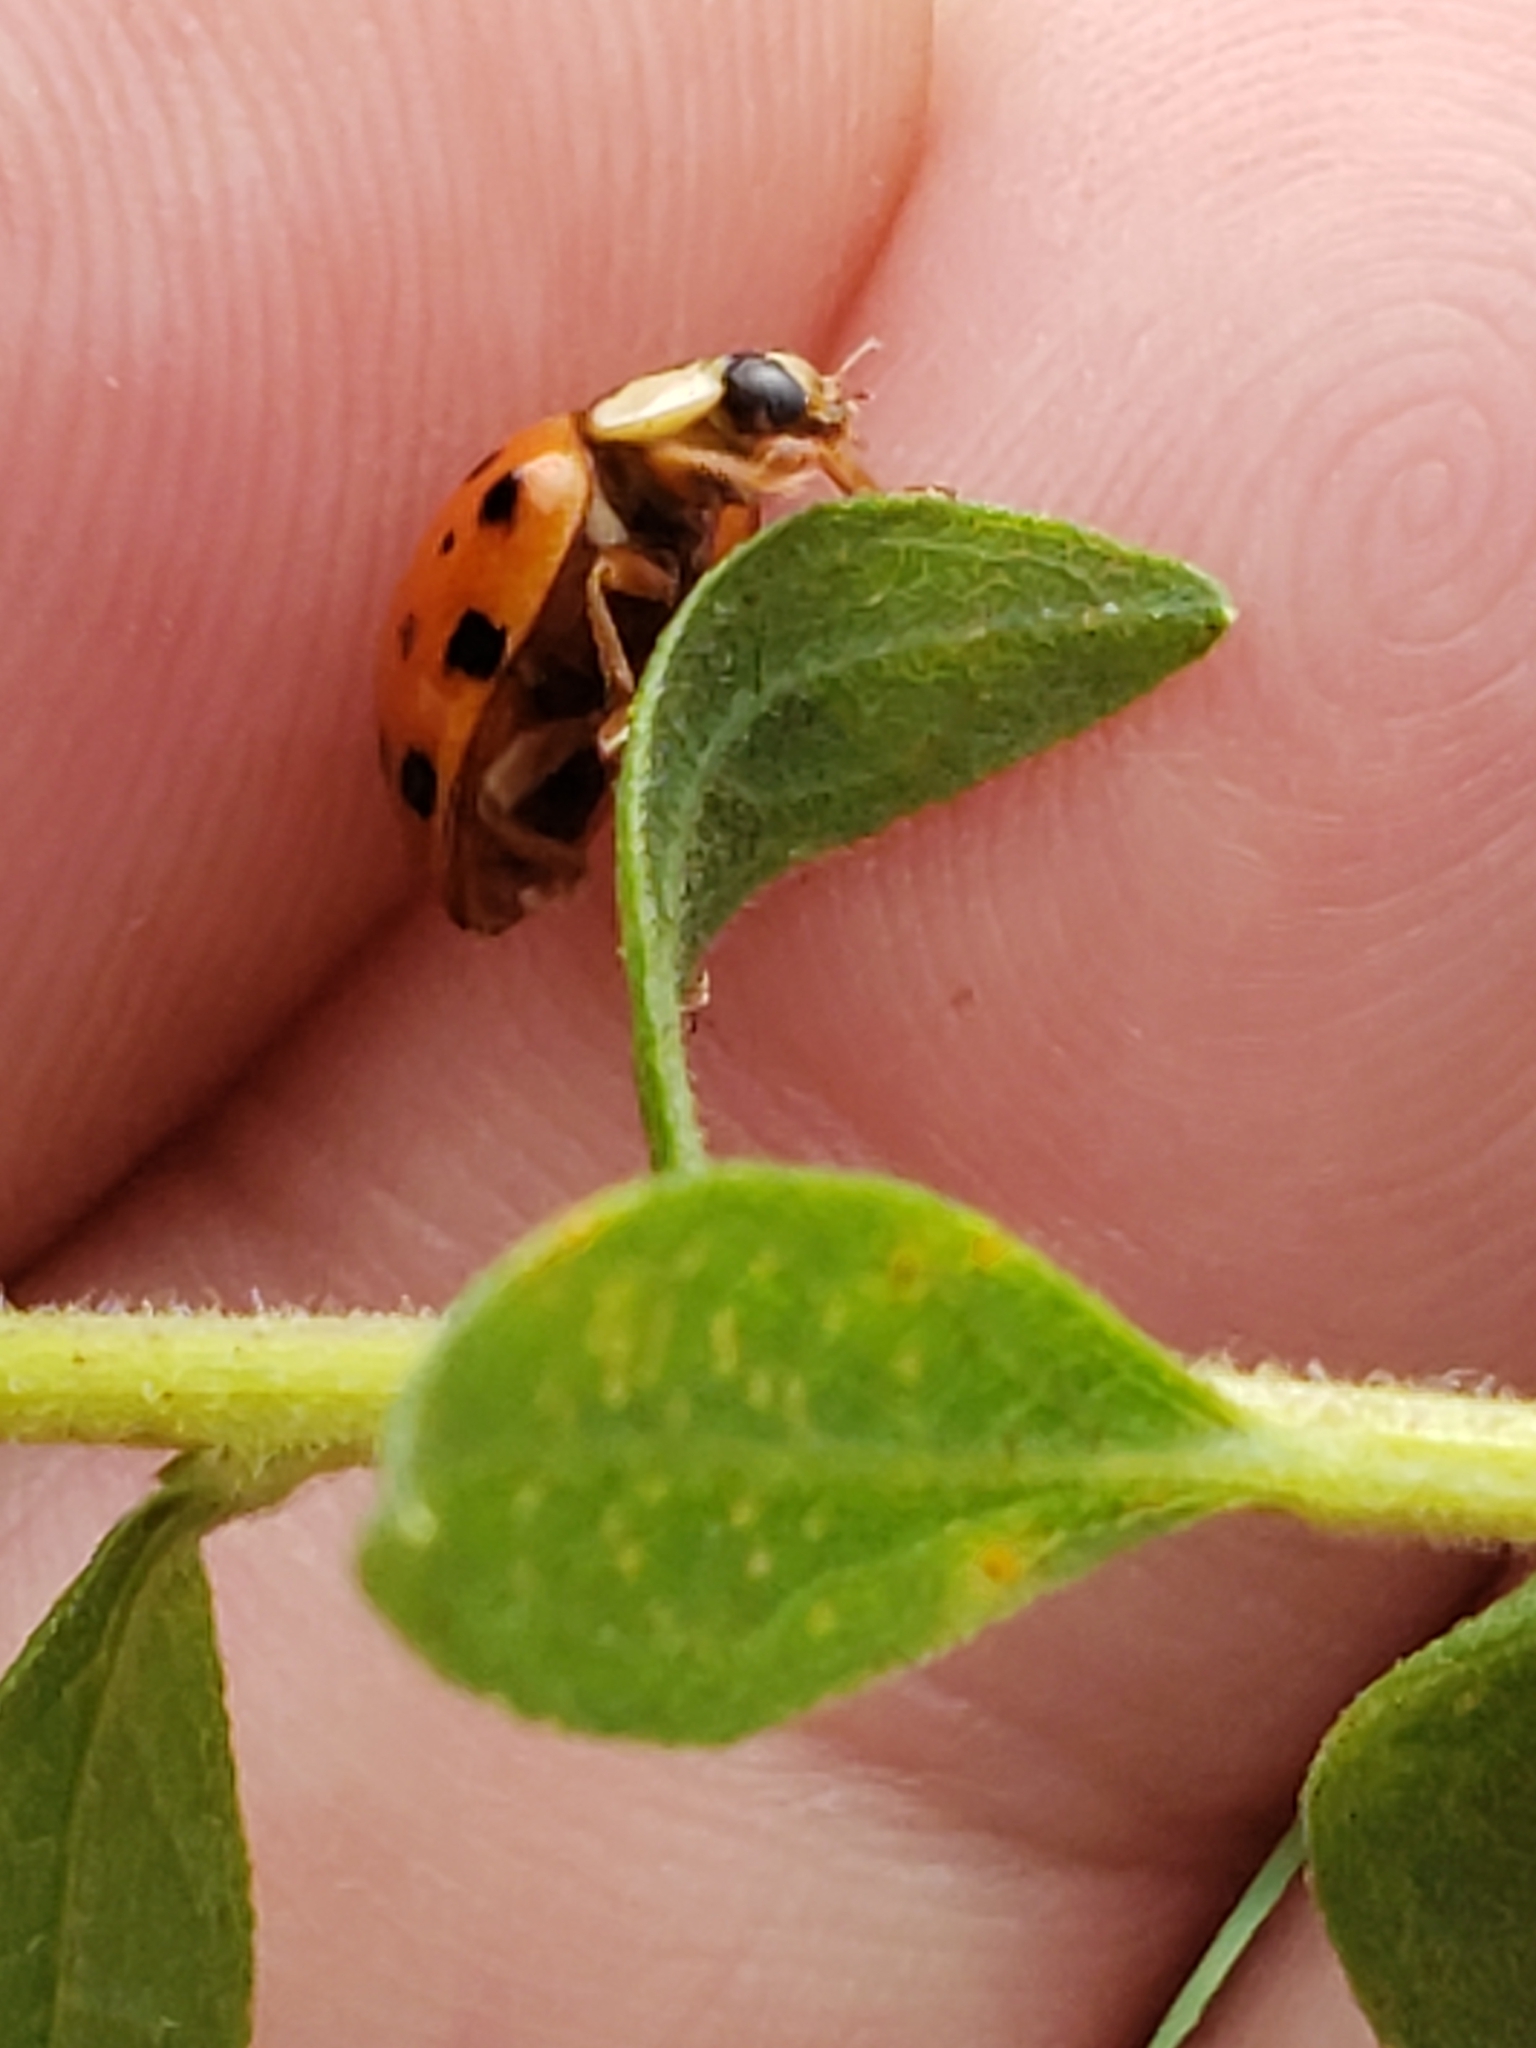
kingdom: Animalia
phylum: Arthropoda
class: Insecta
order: Coleoptera
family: Coccinellidae
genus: Harmonia
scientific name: Harmonia axyridis
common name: Harlequin ladybird
